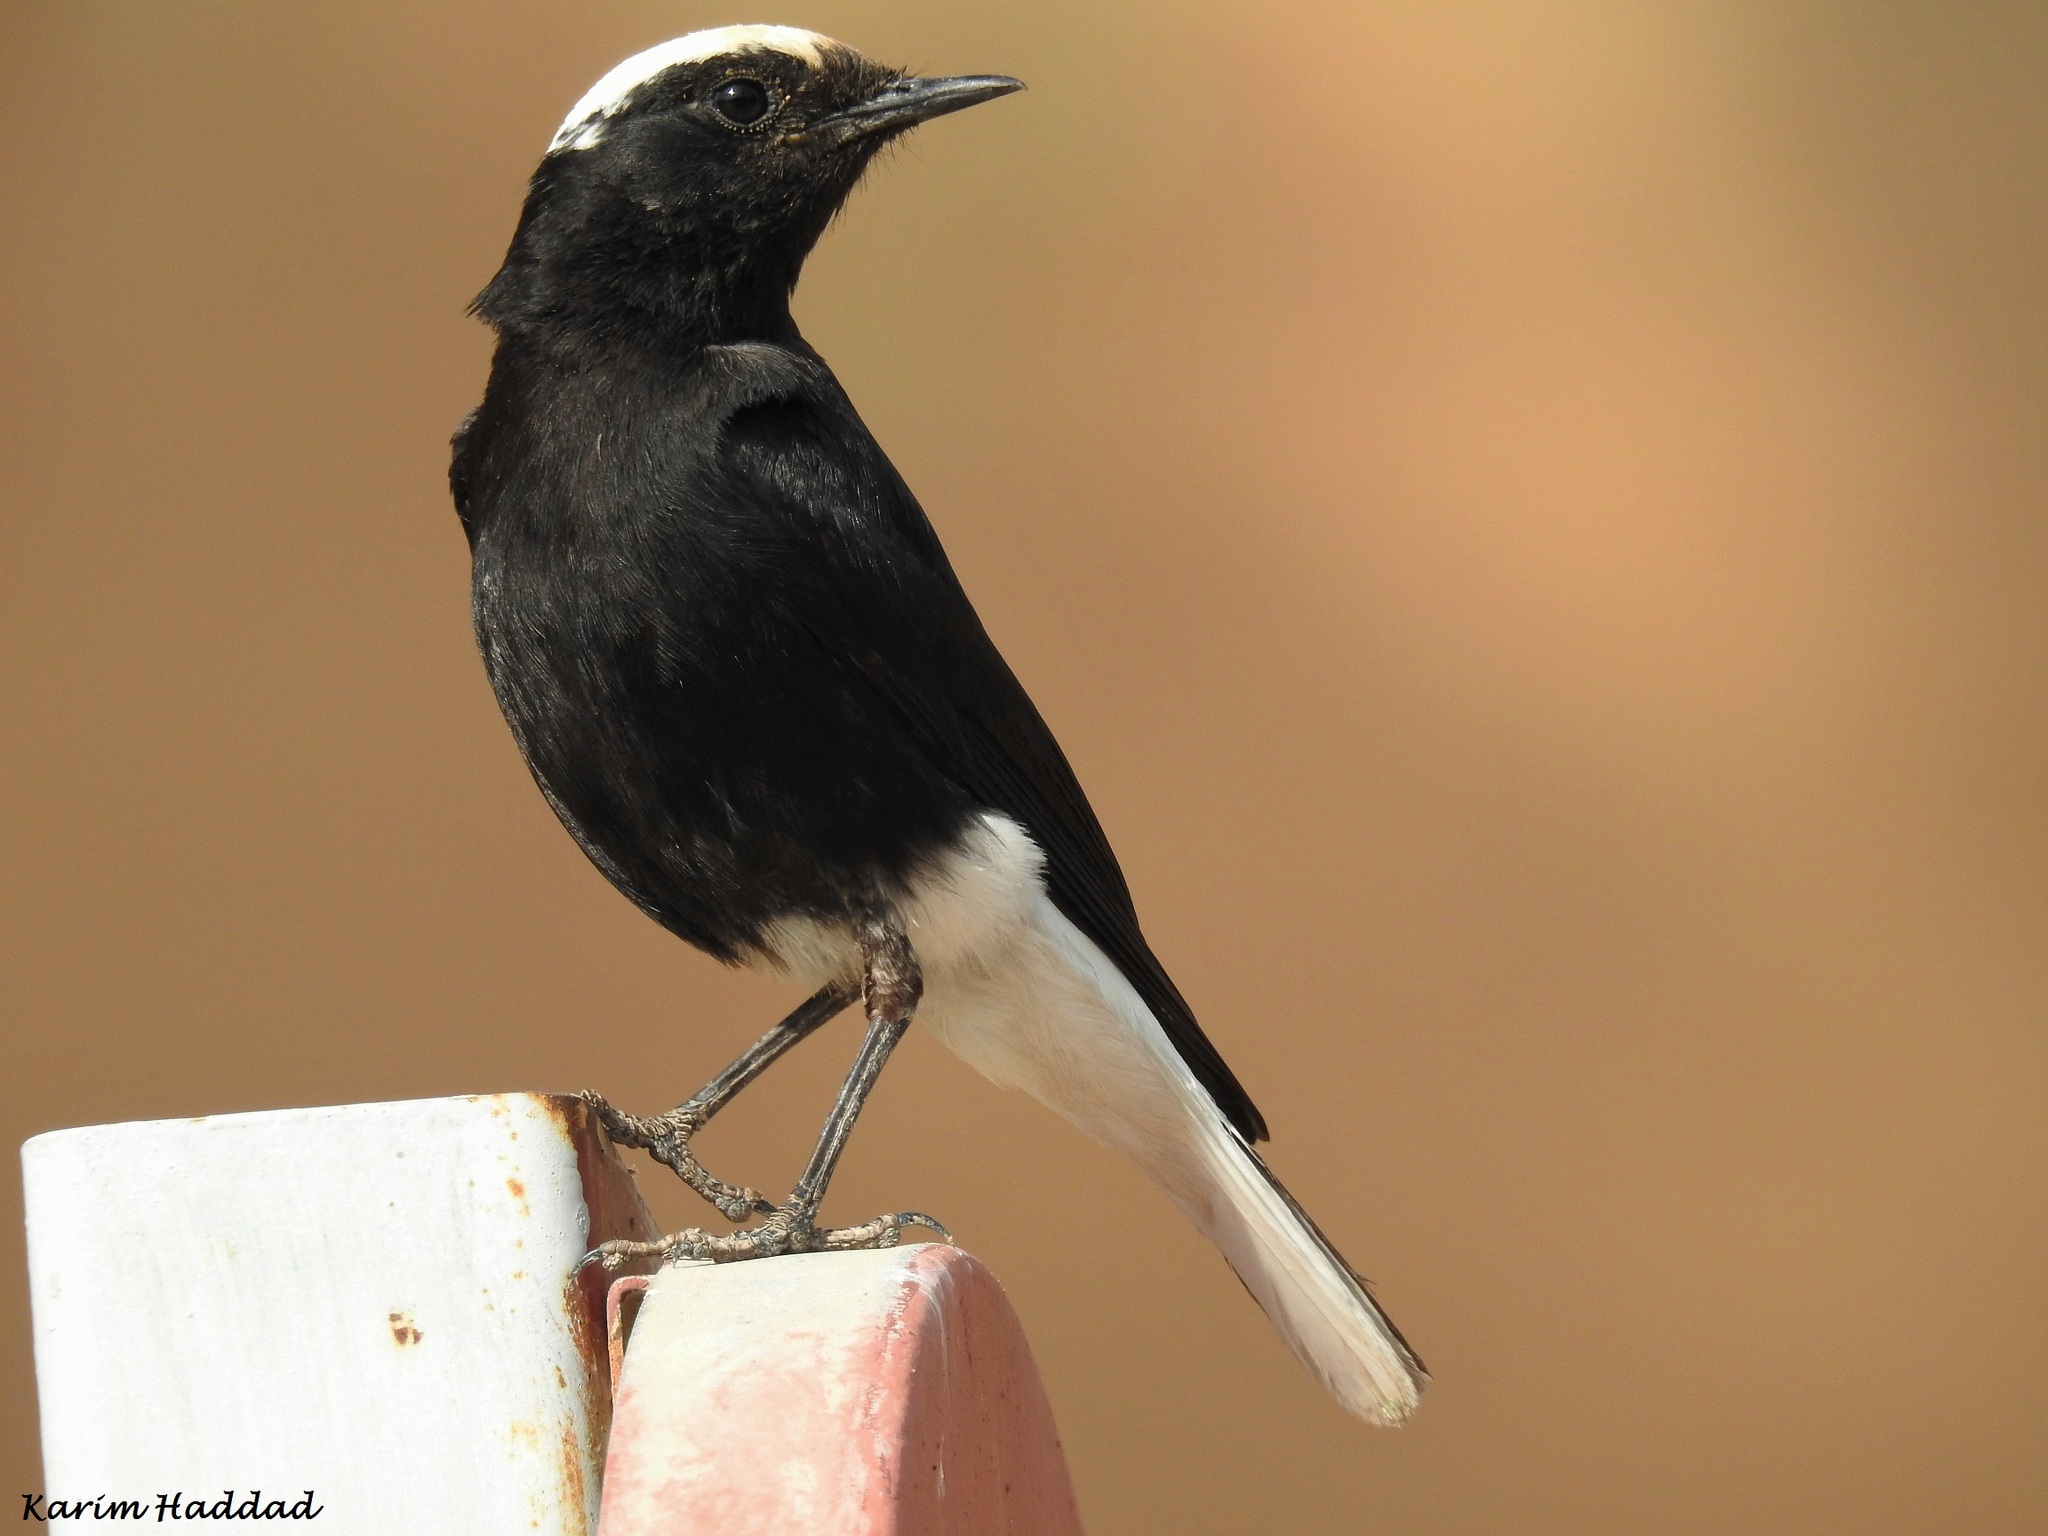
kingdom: Animalia
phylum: Chordata
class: Aves
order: Passeriformes
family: Muscicapidae
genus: Oenanthe
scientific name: Oenanthe leucopyga
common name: White-crowned wheatear
